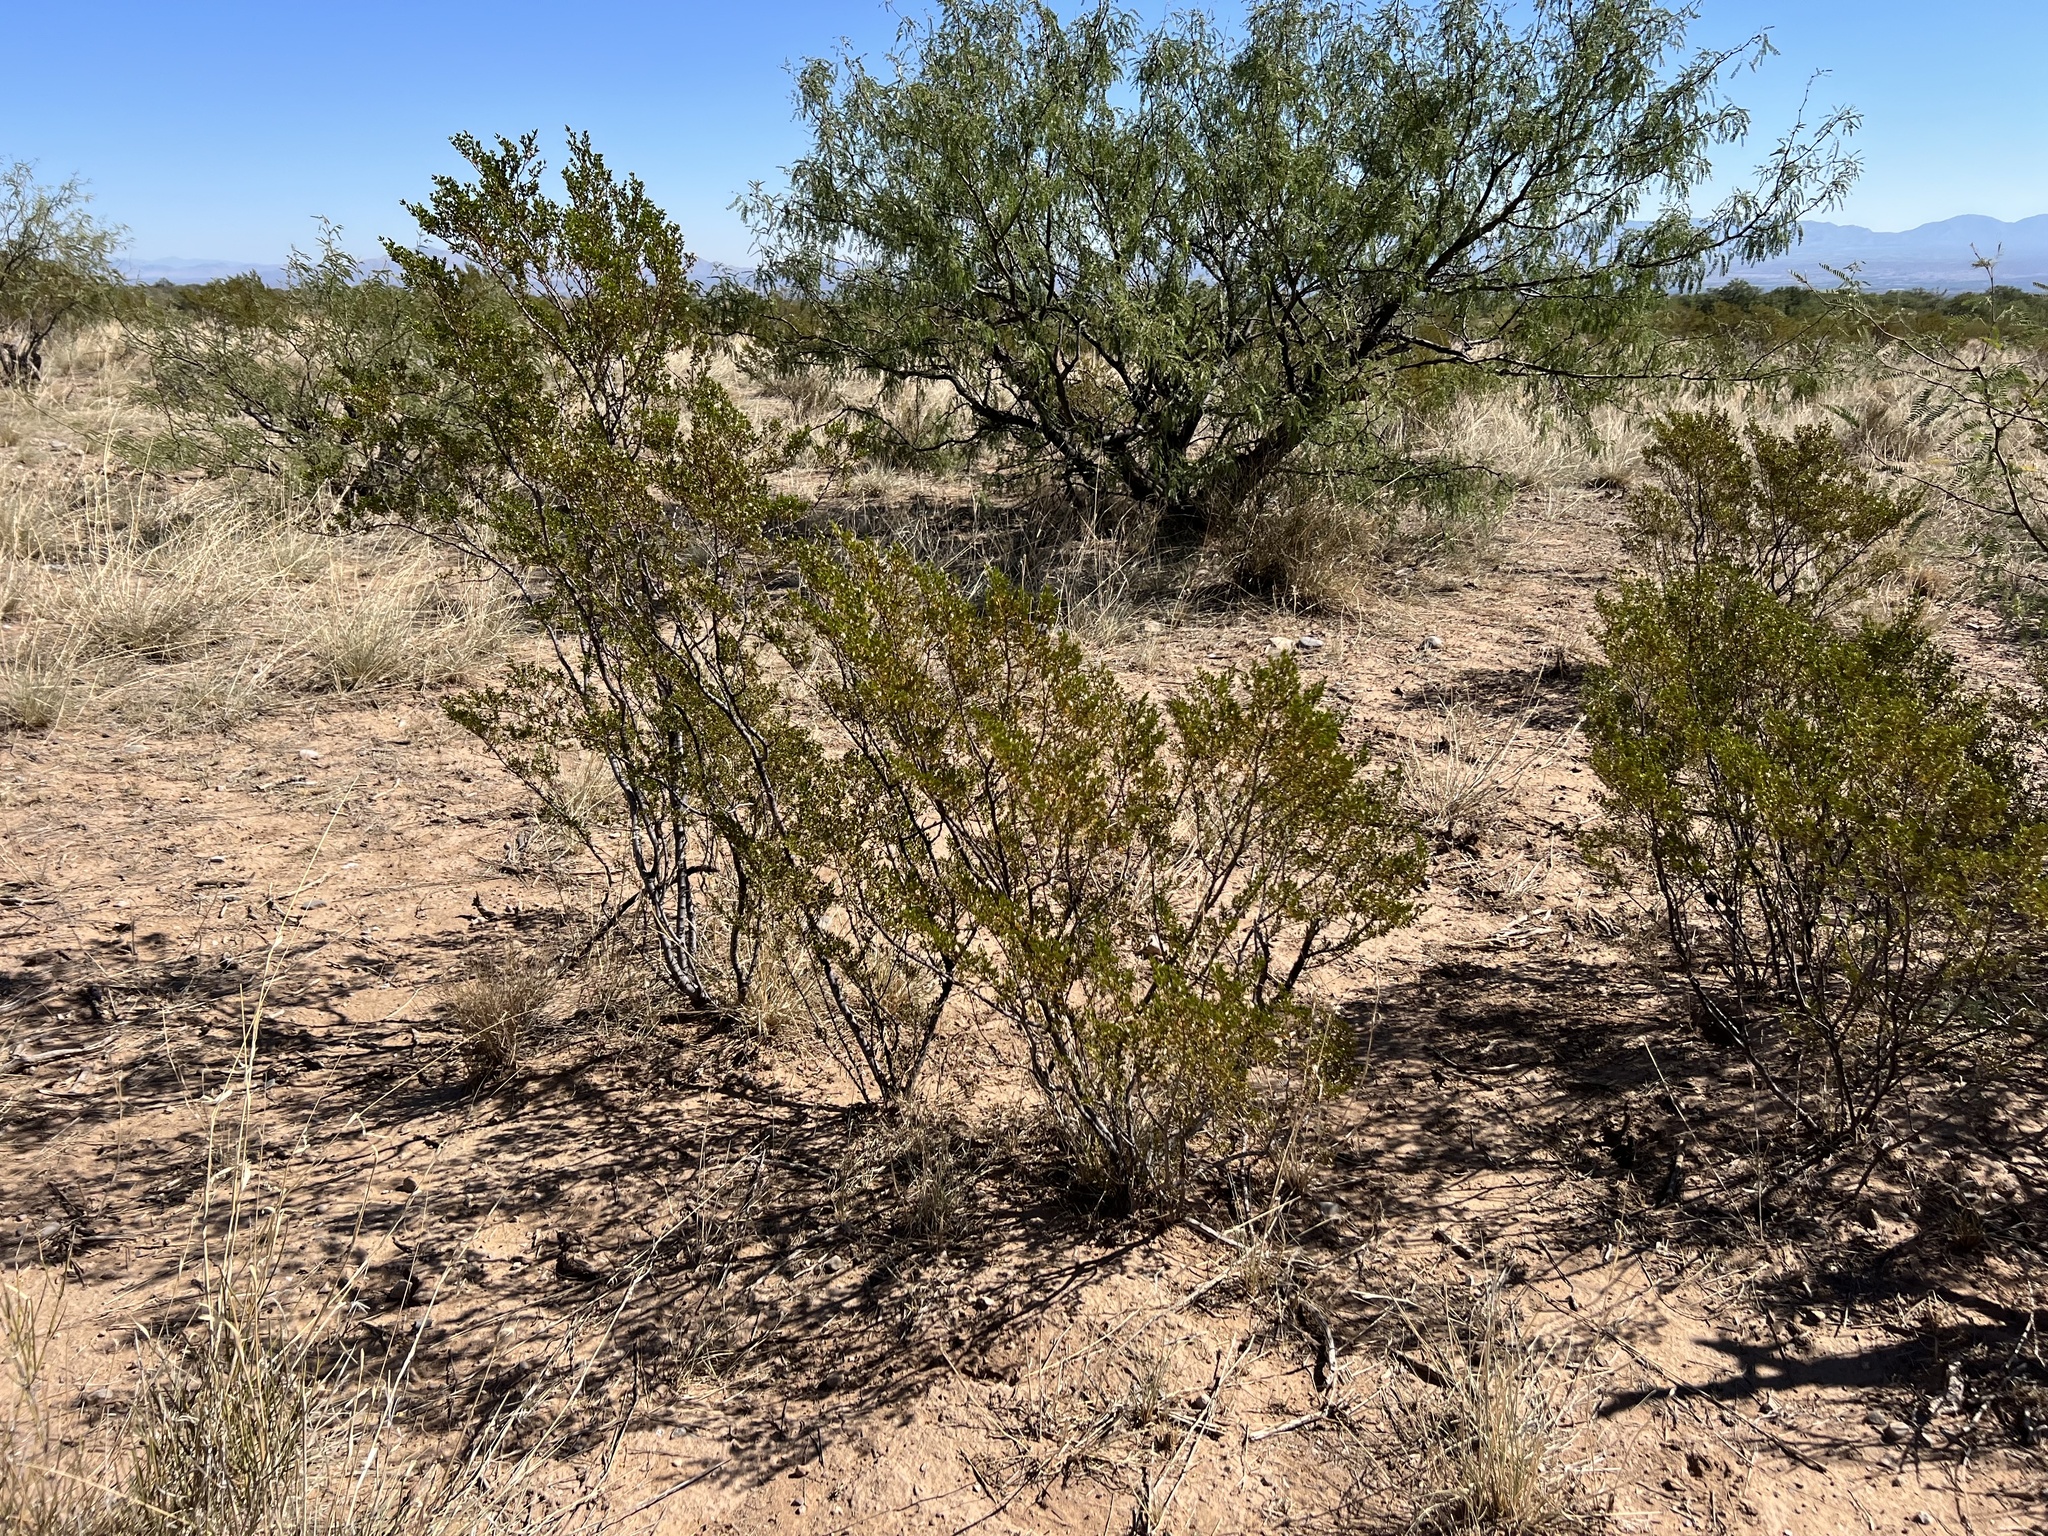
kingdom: Plantae
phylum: Tracheophyta
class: Magnoliopsida
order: Zygophyllales
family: Zygophyllaceae
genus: Larrea
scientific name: Larrea tridentata
